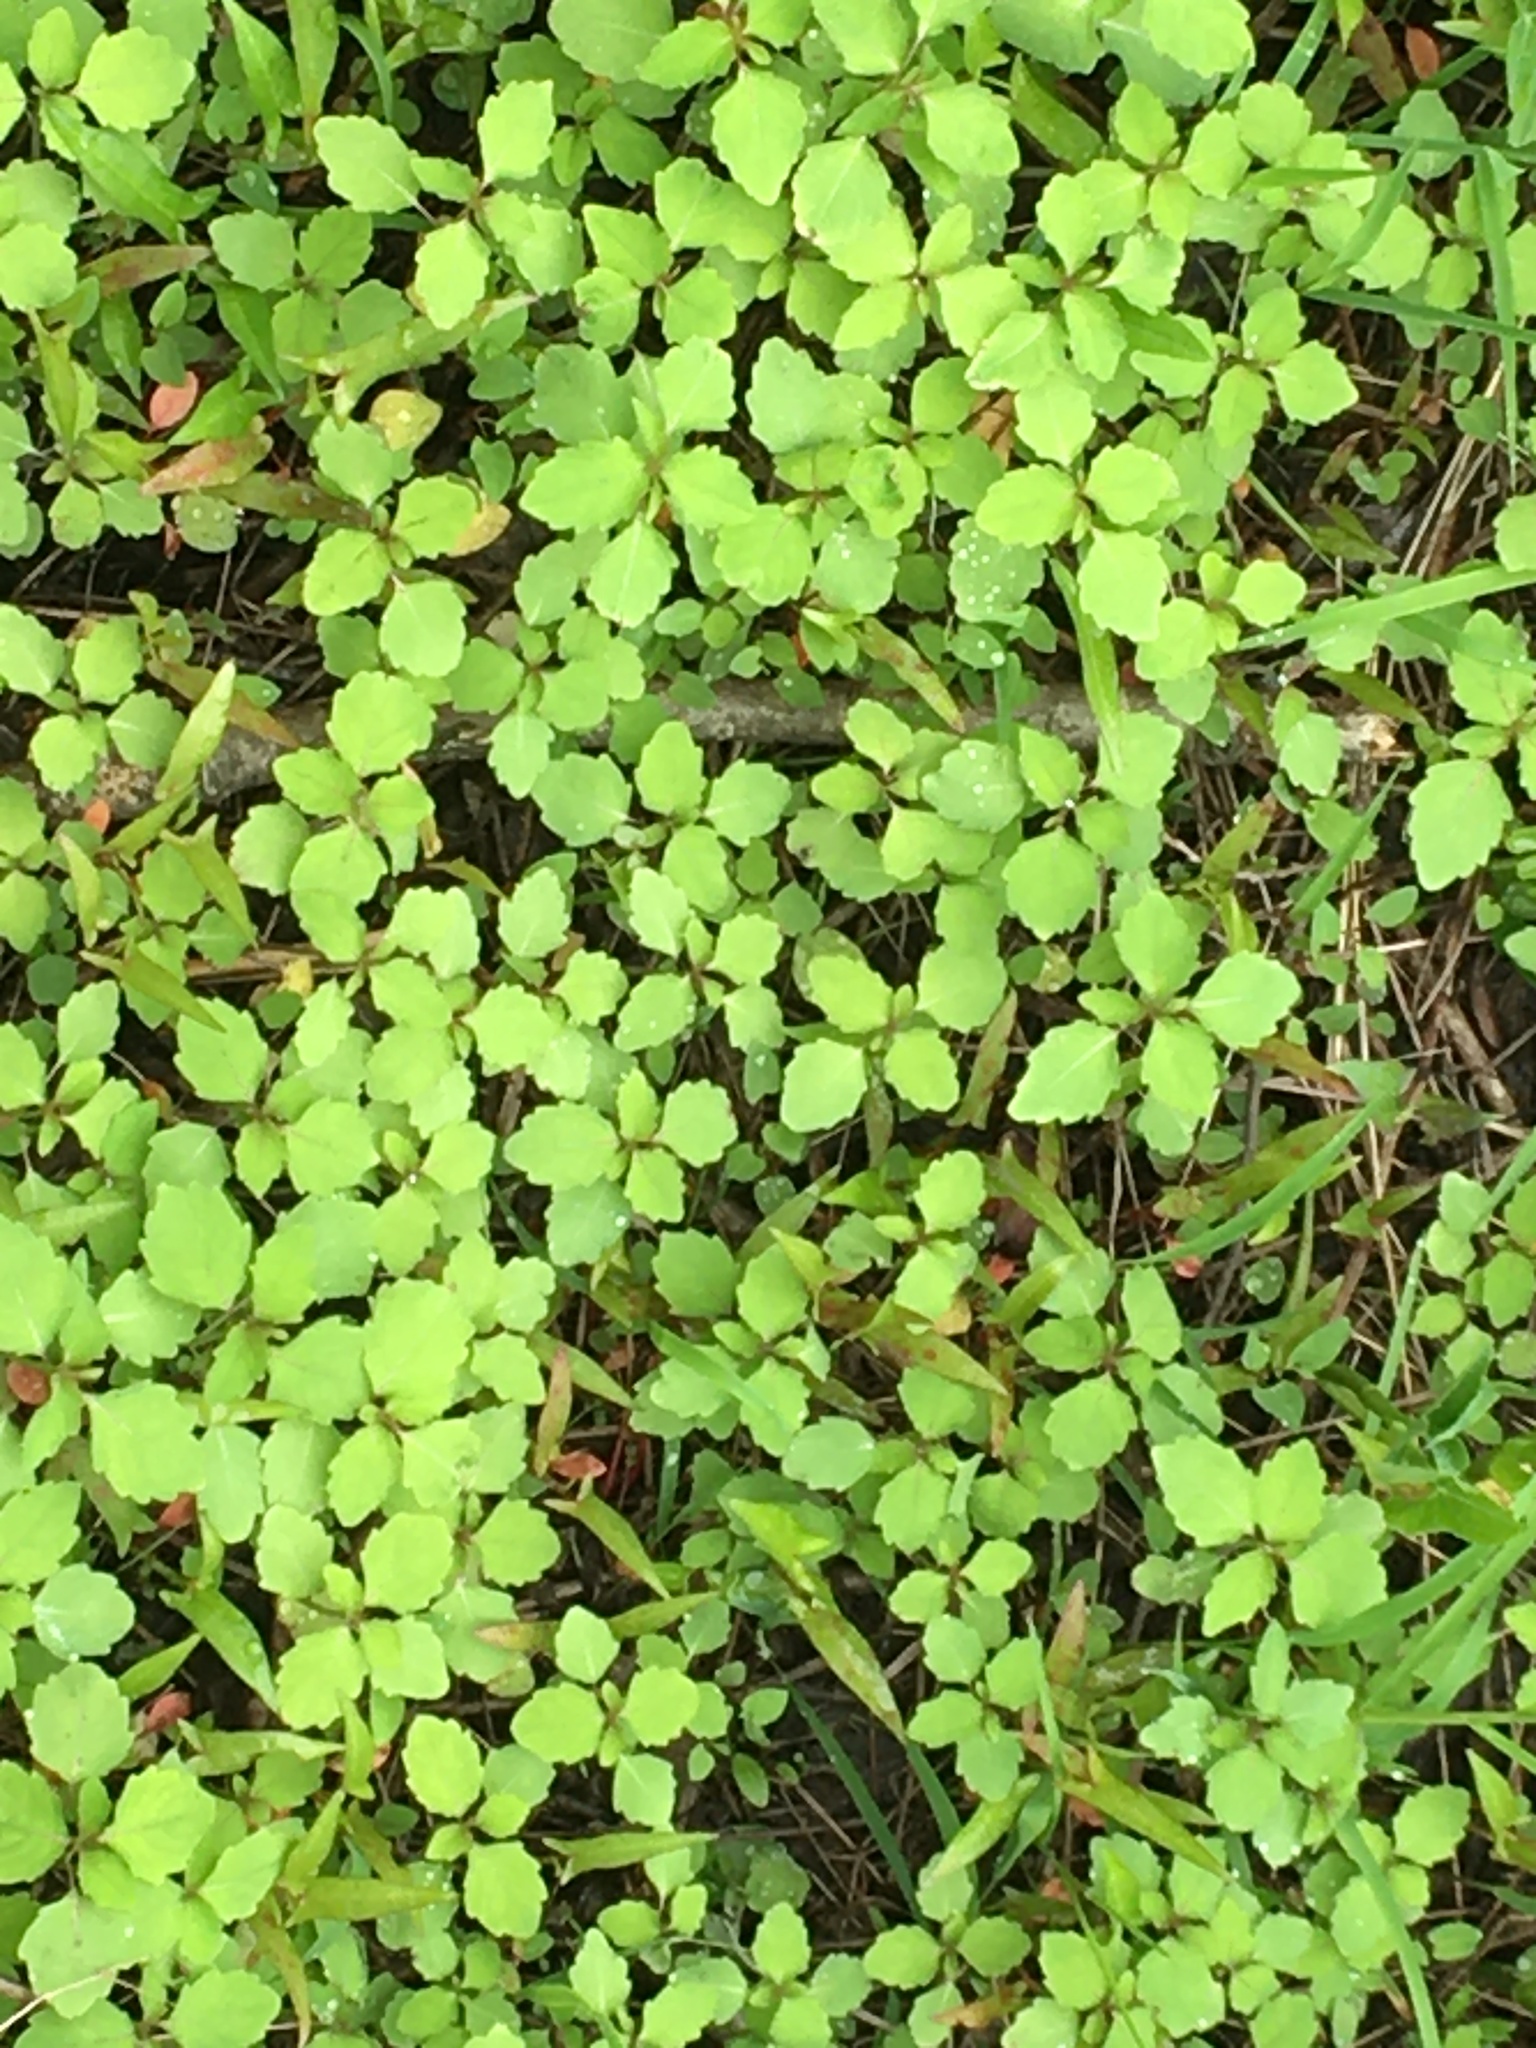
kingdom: Plantae
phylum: Tracheophyta
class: Magnoliopsida
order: Ericales
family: Balsaminaceae
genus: Impatiens
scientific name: Impatiens capensis
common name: Orange balsam
